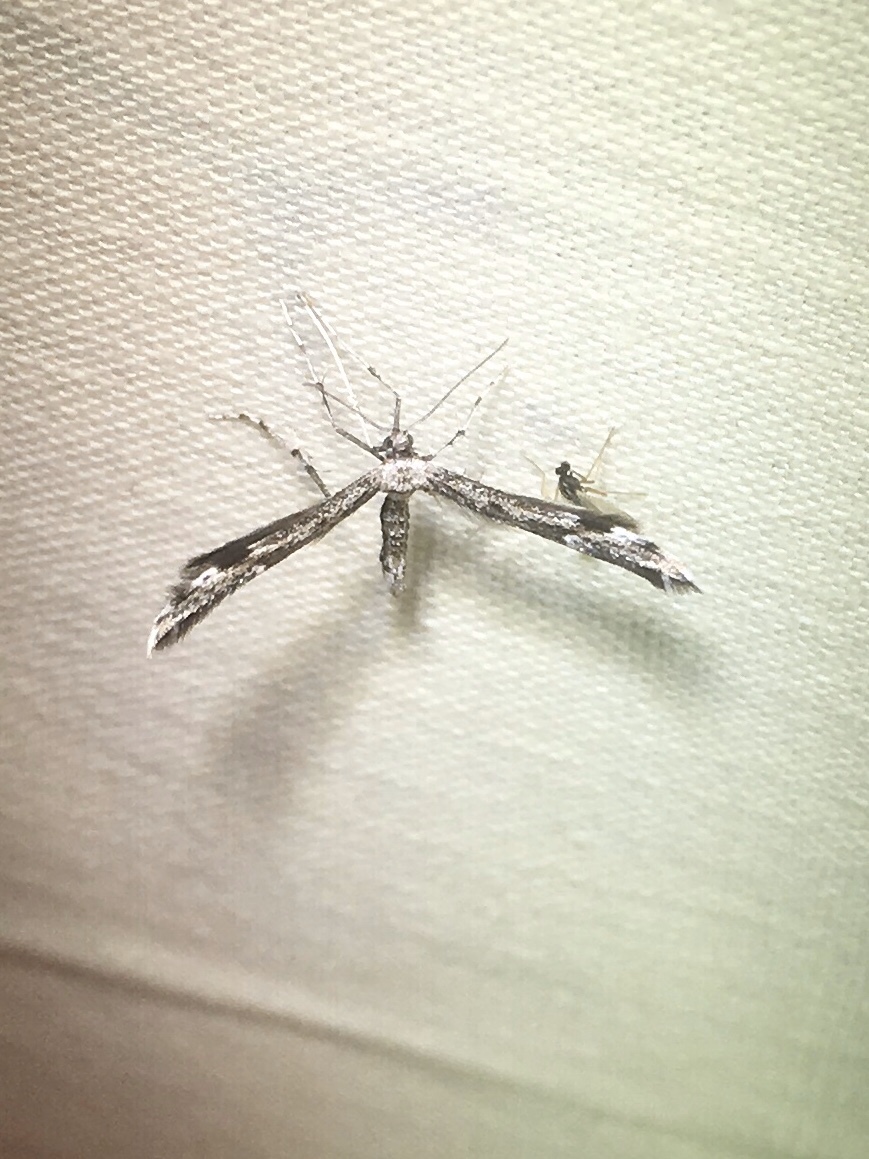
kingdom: Animalia
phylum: Arthropoda
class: Insecta
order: Lepidoptera
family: Pterophoridae
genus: Hellinsia
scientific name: Hellinsia inquinatus
